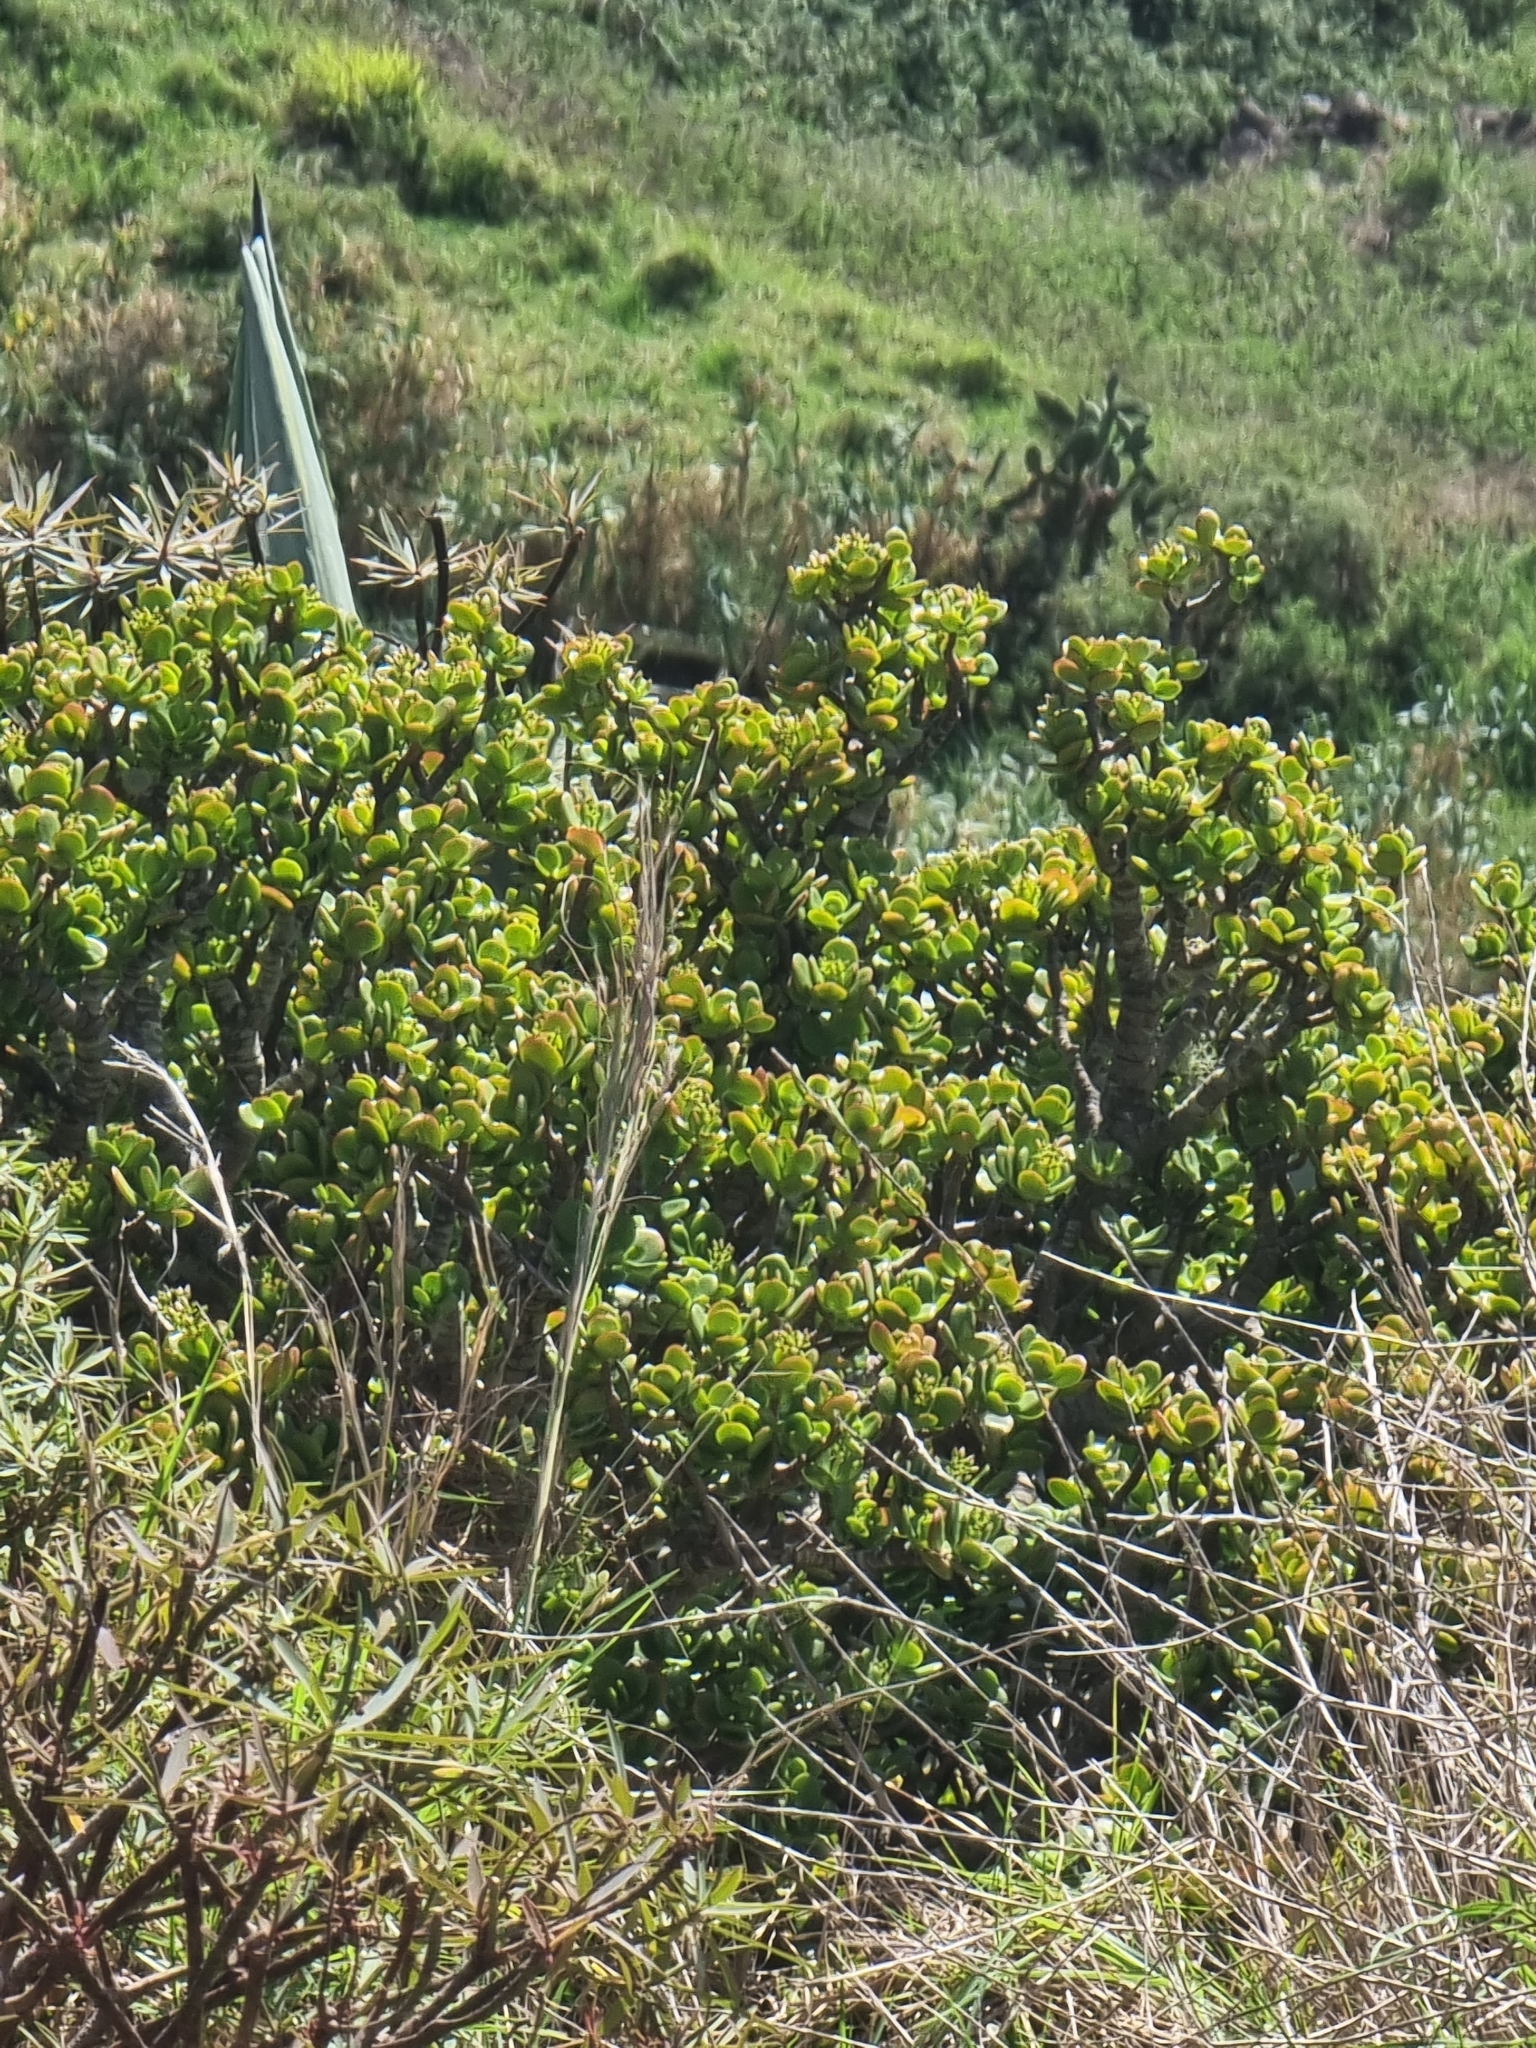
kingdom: Plantae
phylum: Tracheophyta
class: Magnoliopsida
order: Saxifragales
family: Crassulaceae
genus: Crassula
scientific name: Crassula ovata
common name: Jade plant
